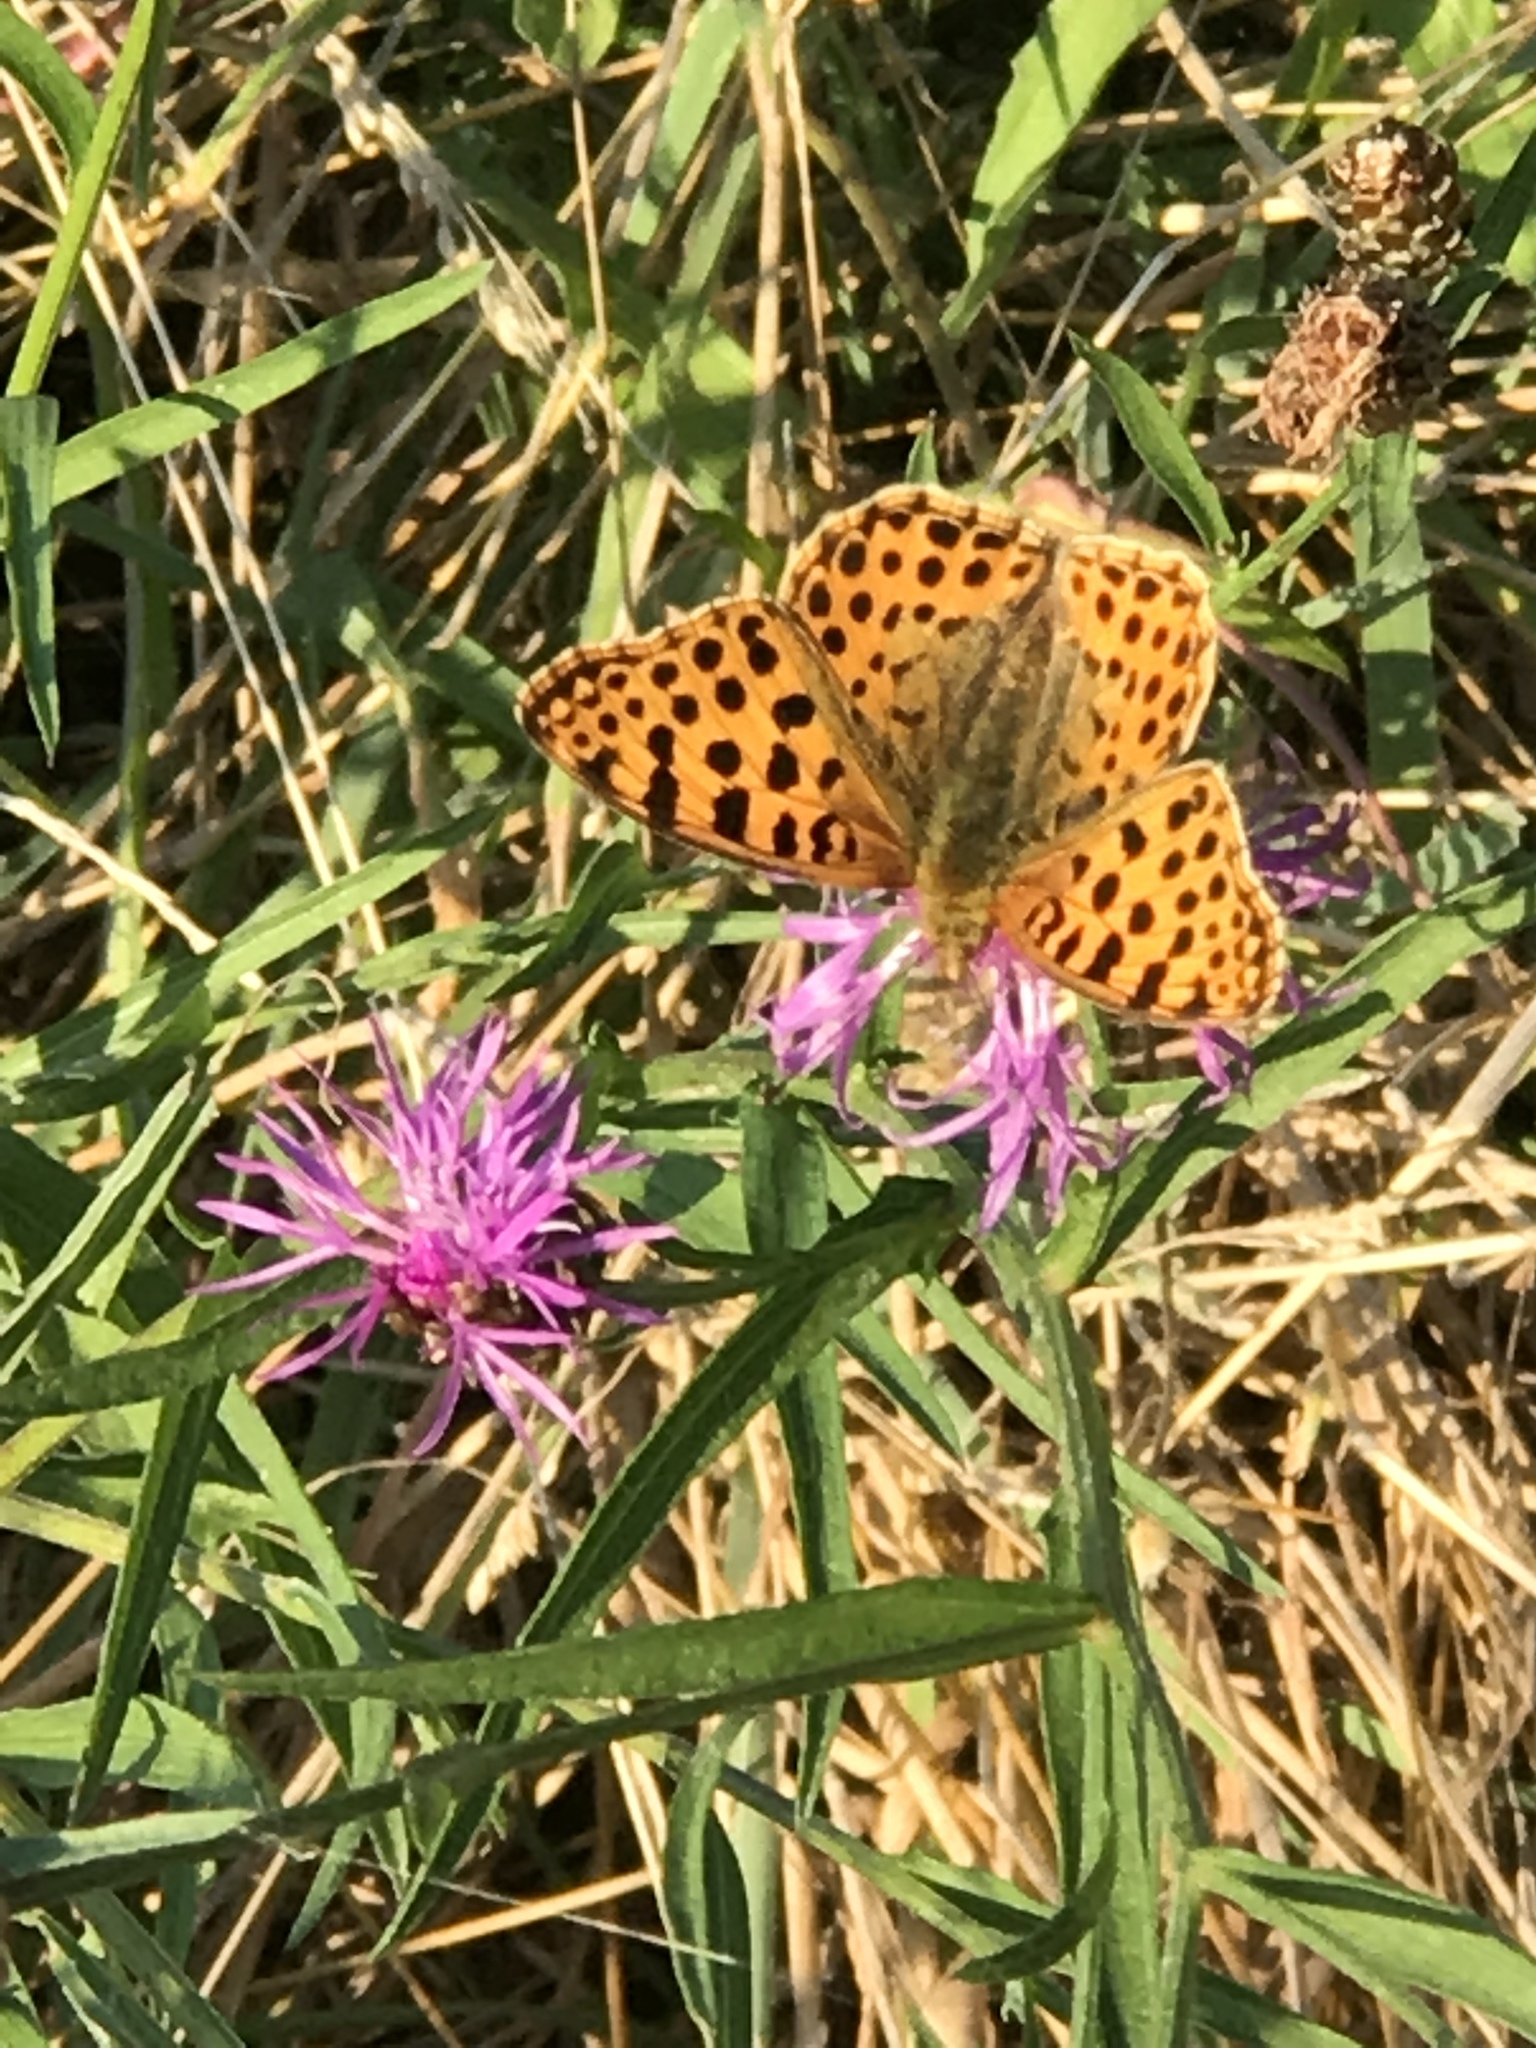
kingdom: Animalia
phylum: Arthropoda
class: Insecta
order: Lepidoptera
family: Nymphalidae
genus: Issoria
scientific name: Issoria lathonia
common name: Queen of spain fritillary
